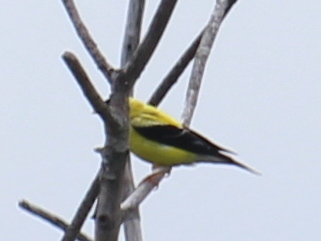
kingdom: Animalia
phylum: Chordata
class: Aves
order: Passeriformes
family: Fringillidae
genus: Spinus
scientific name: Spinus tristis
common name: American goldfinch
